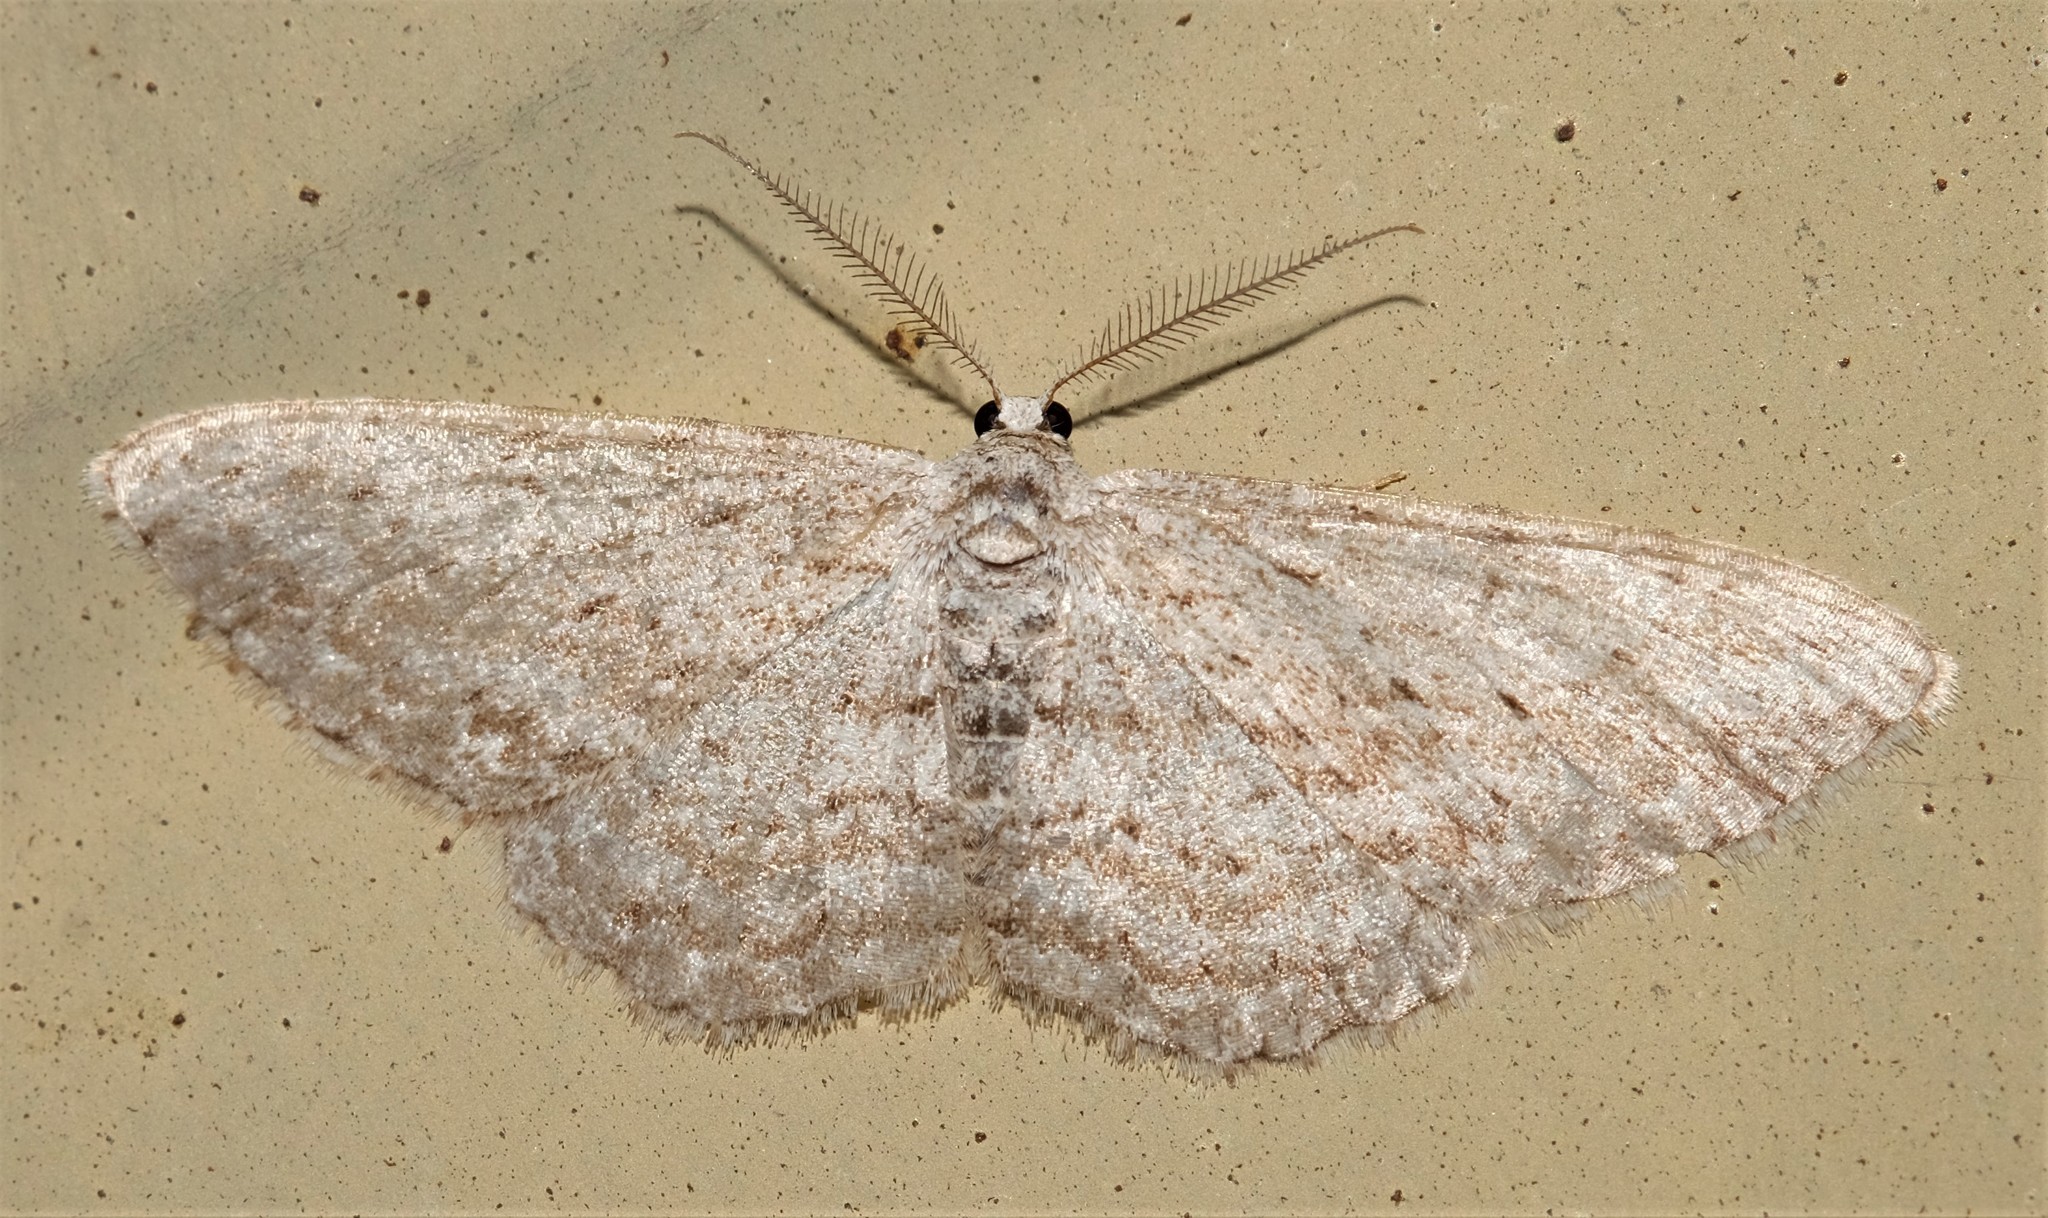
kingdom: Animalia
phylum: Arthropoda
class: Insecta
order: Lepidoptera
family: Geometridae
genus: Phelotis
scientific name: Phelotis cognata
